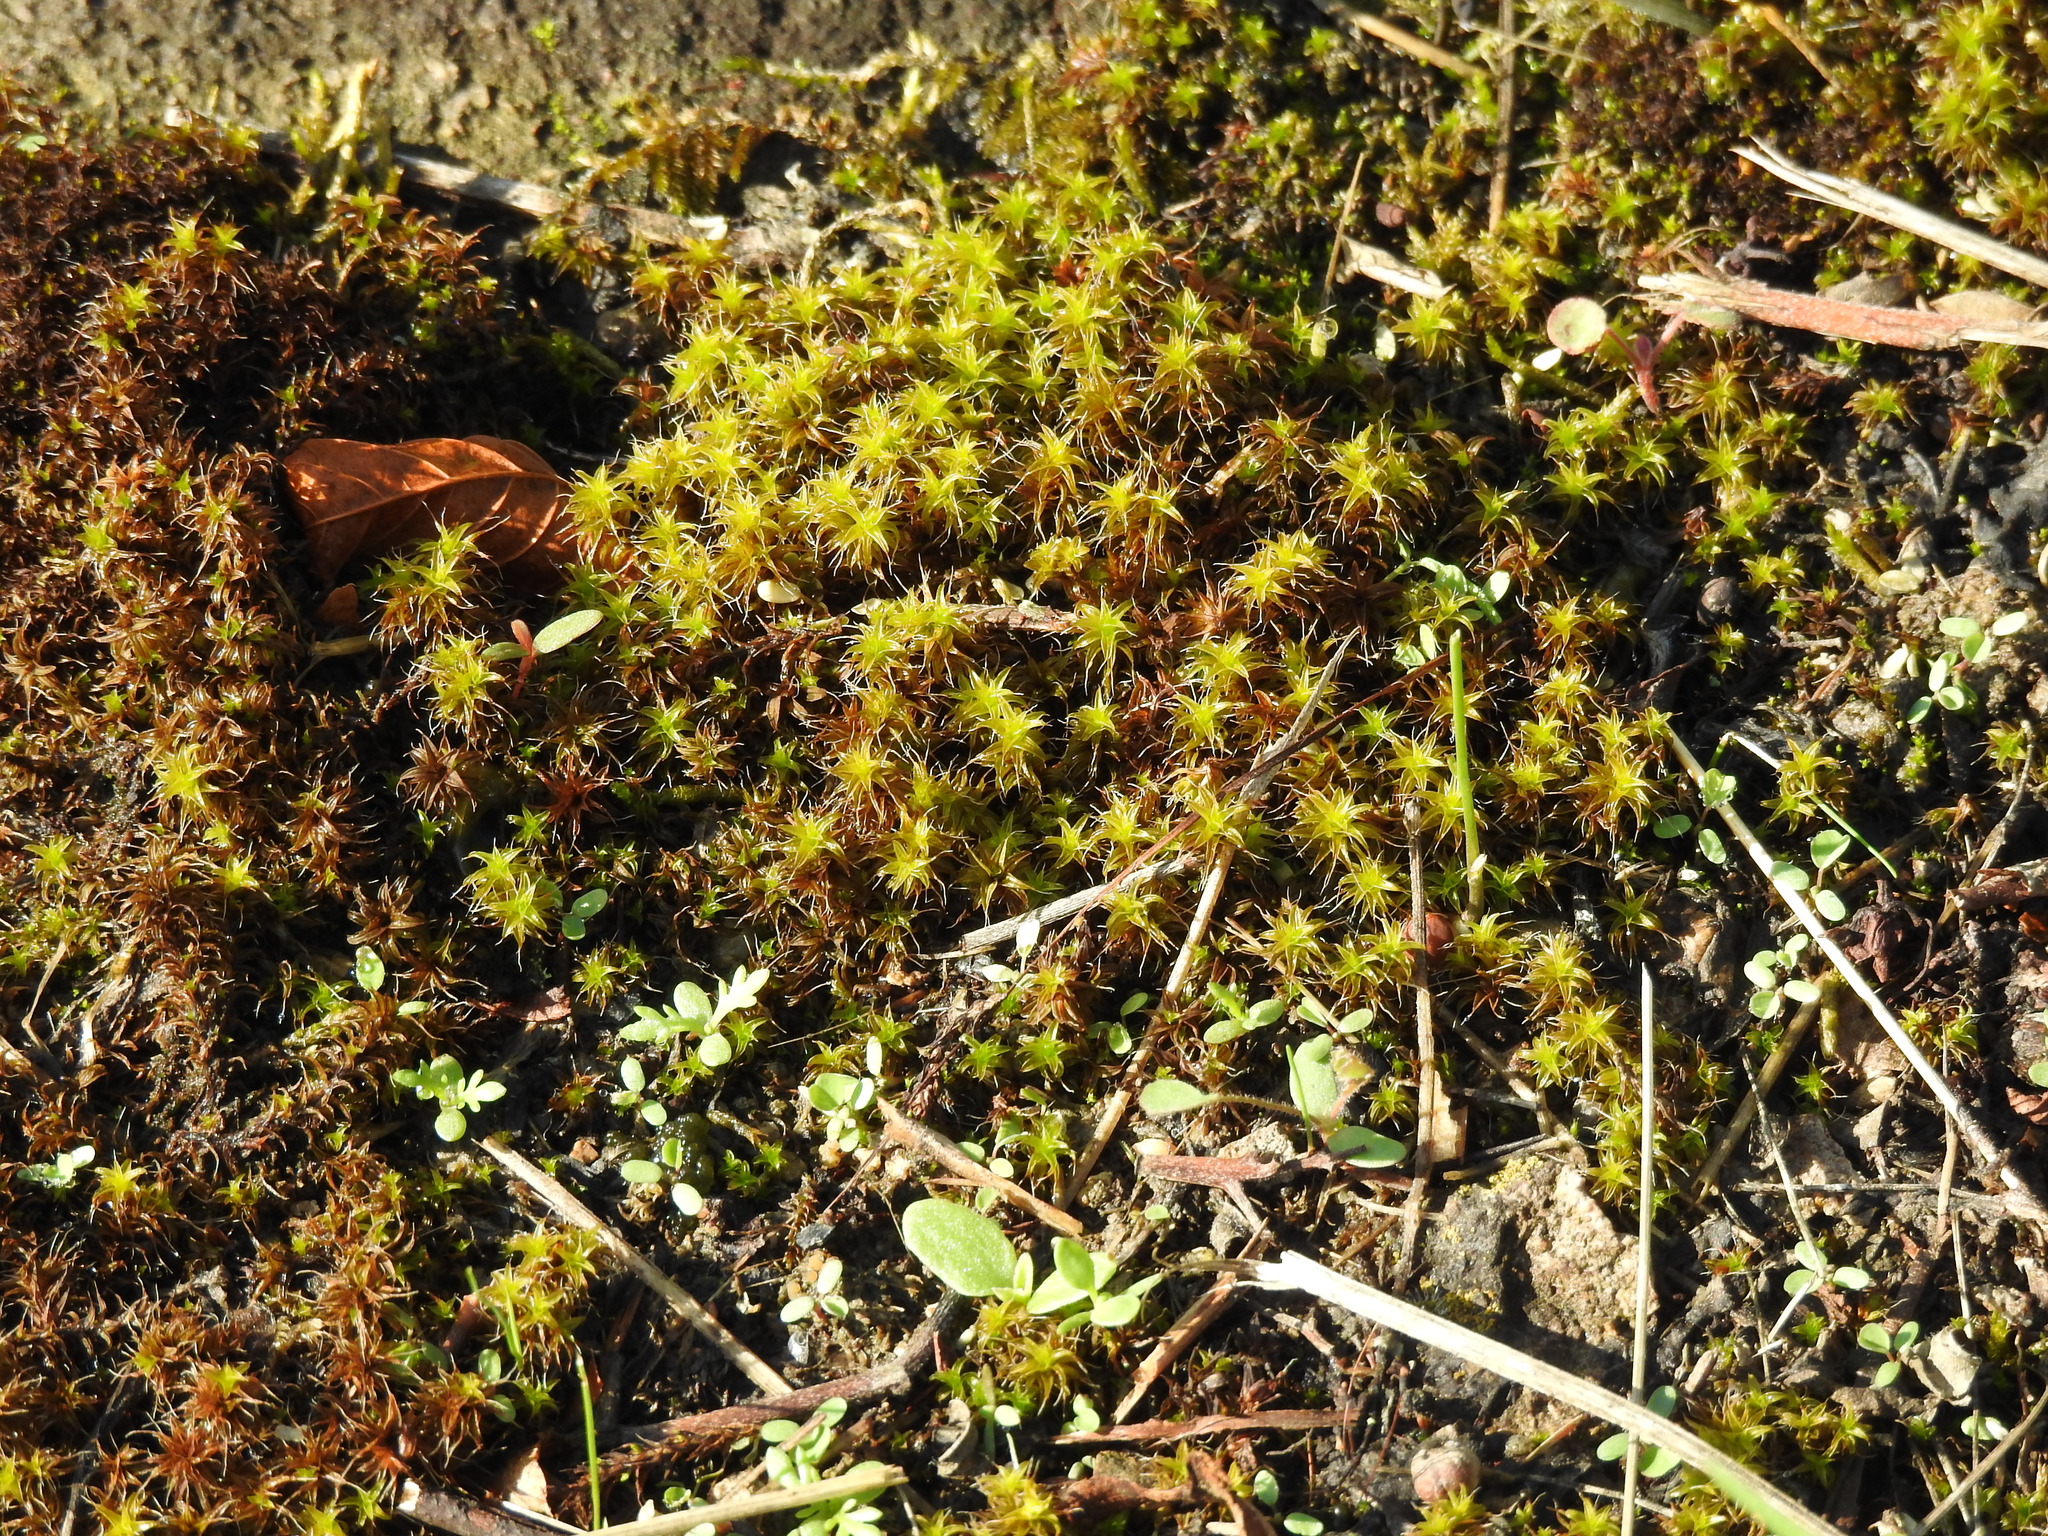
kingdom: Plantae
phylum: Bryophyta
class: Bryopsida
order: Pottiales
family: Pottiaceae
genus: Syntrichia
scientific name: Syntrichia ruralis
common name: Sidewalk screw moss
